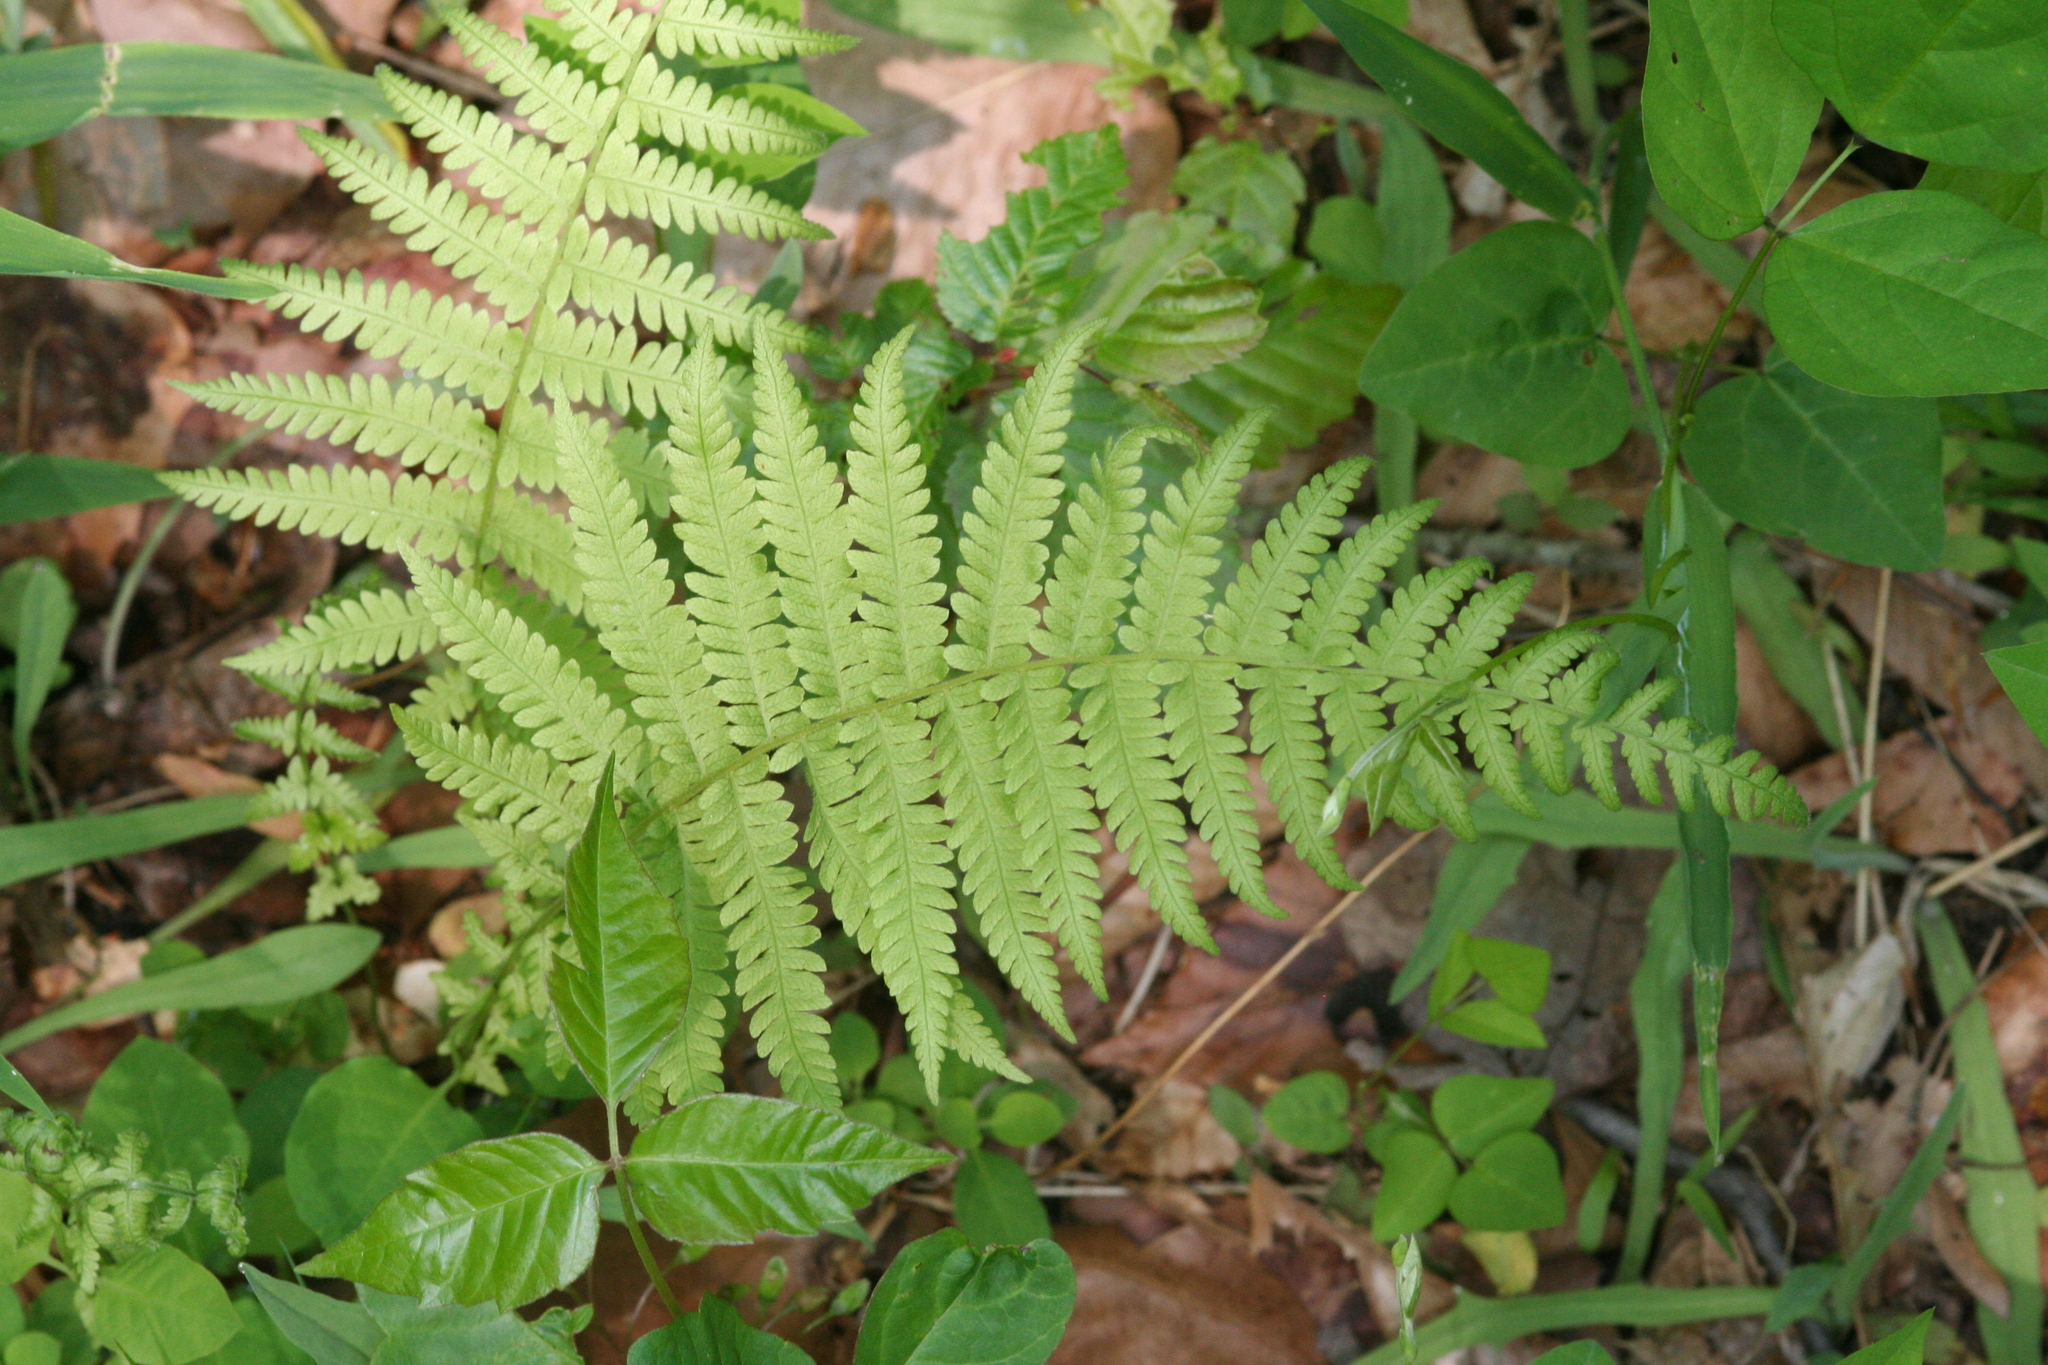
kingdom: Plantae
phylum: Tracheophyta
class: Polypodiopsida
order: Polypodiales
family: Thelypteridaceae
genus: Amauropelta
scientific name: Amauropelta noveboracensis
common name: New york fern
